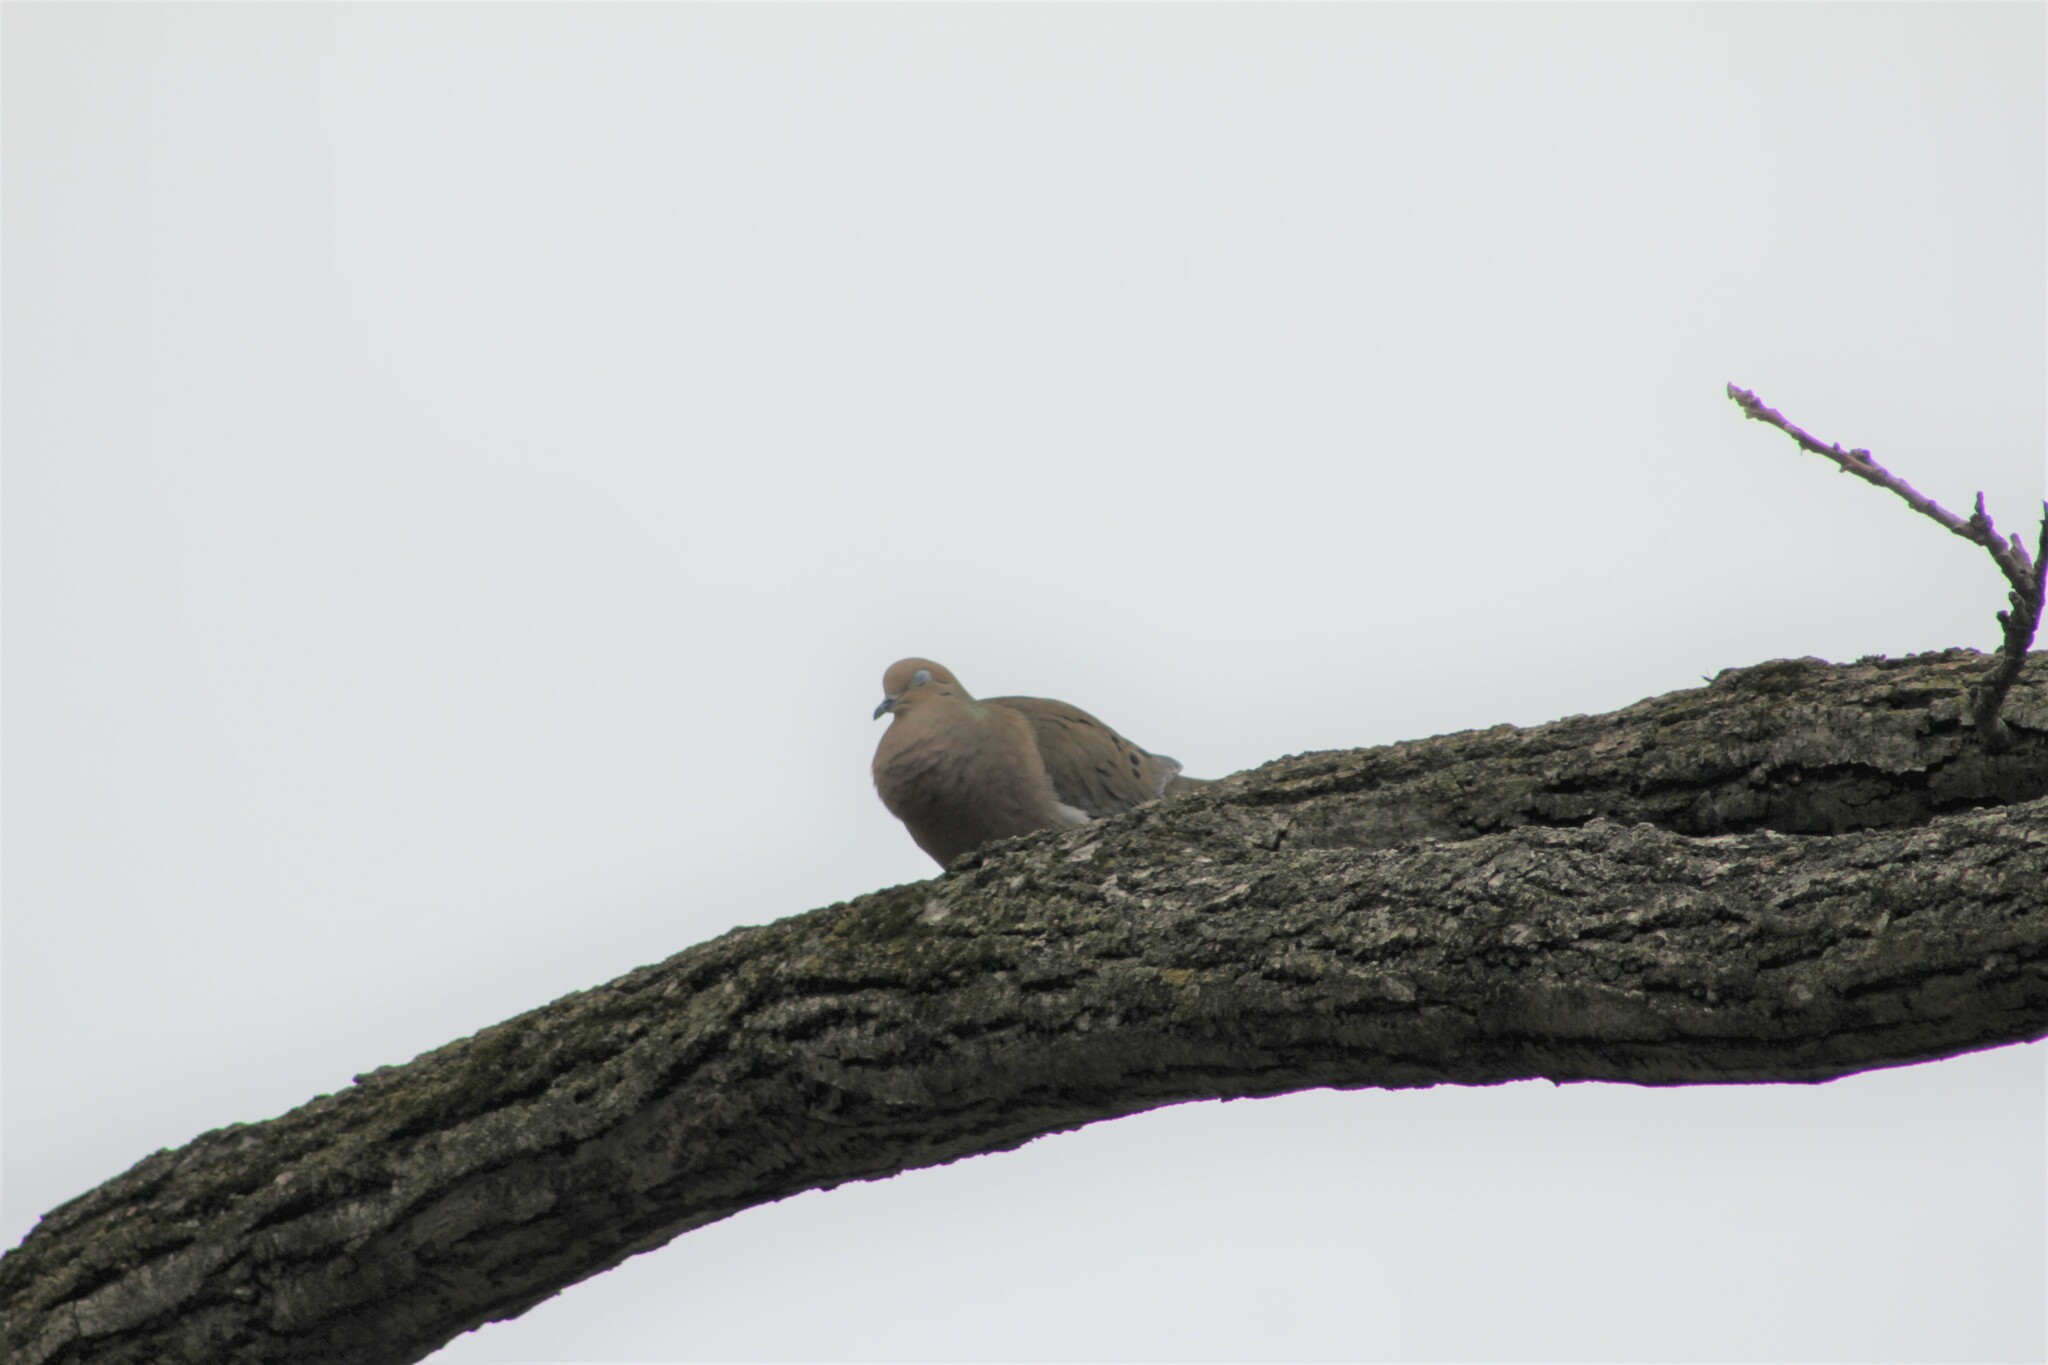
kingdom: Animalia
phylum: Chordata
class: Aves
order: Columbiformes
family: Columbidae
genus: Zenaida
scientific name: Zenaida macroura
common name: Mourning dove
